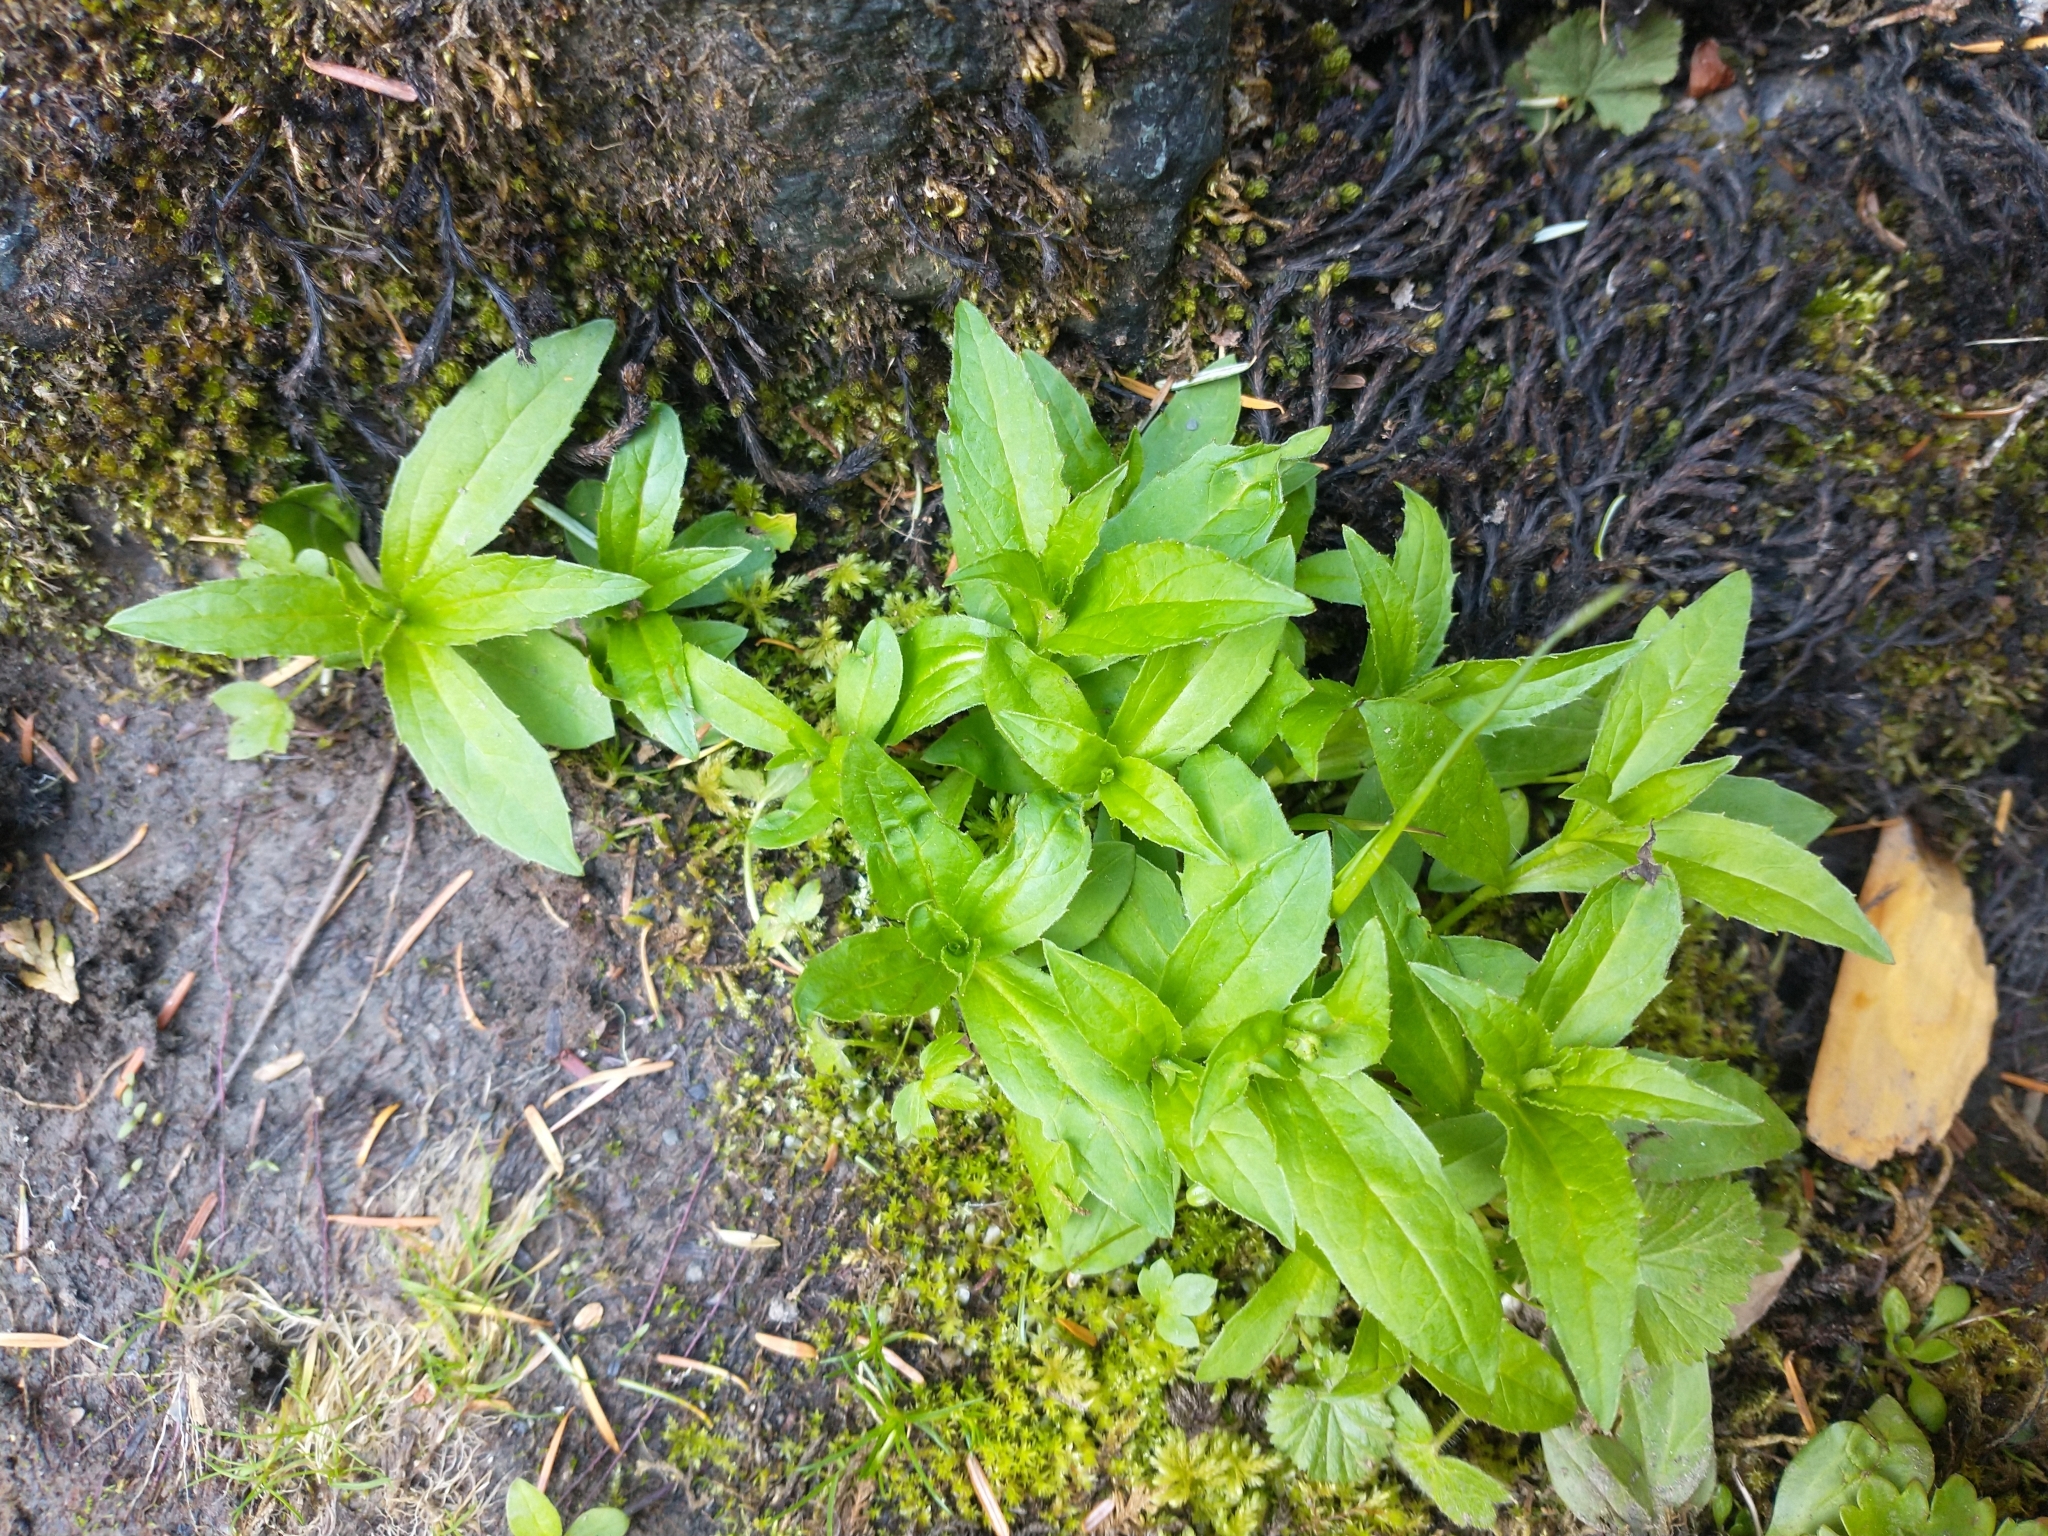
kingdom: Plantae
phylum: Tracheophyta
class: Magnoliopsida
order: Asterales
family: Asteraceae
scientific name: Asteraceae
